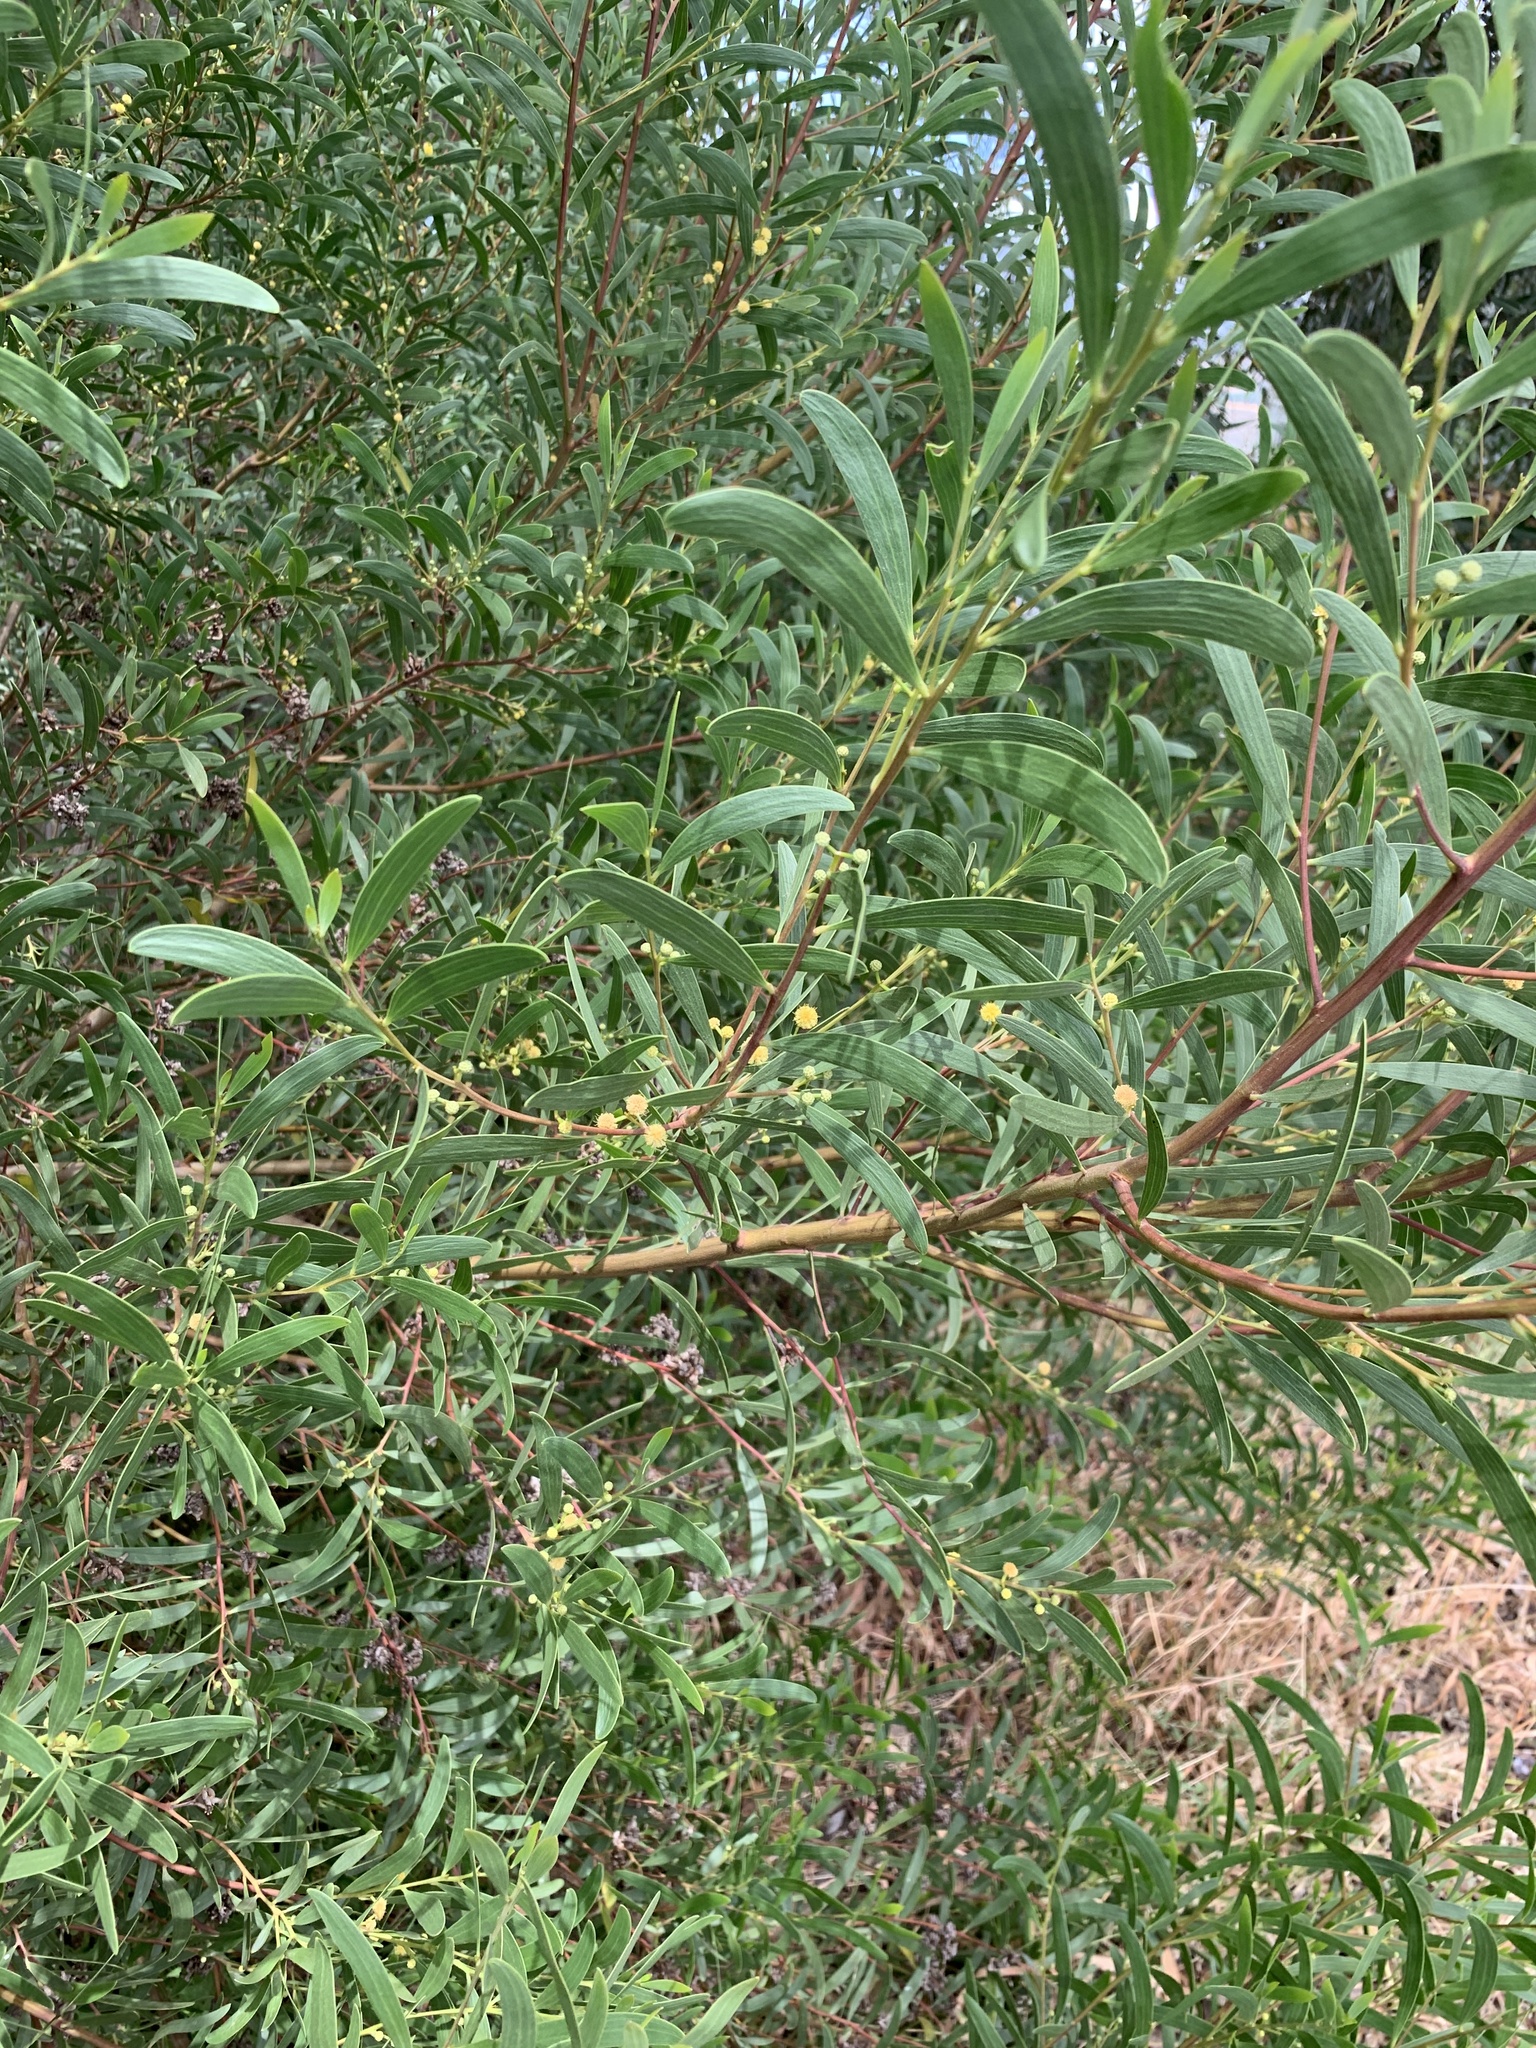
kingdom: Plantae
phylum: Tracheophyta
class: Magnoliopsida
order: Fabales
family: Fabaceae
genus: Acacia
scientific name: Acacia cyclops
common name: Coastal wattle
